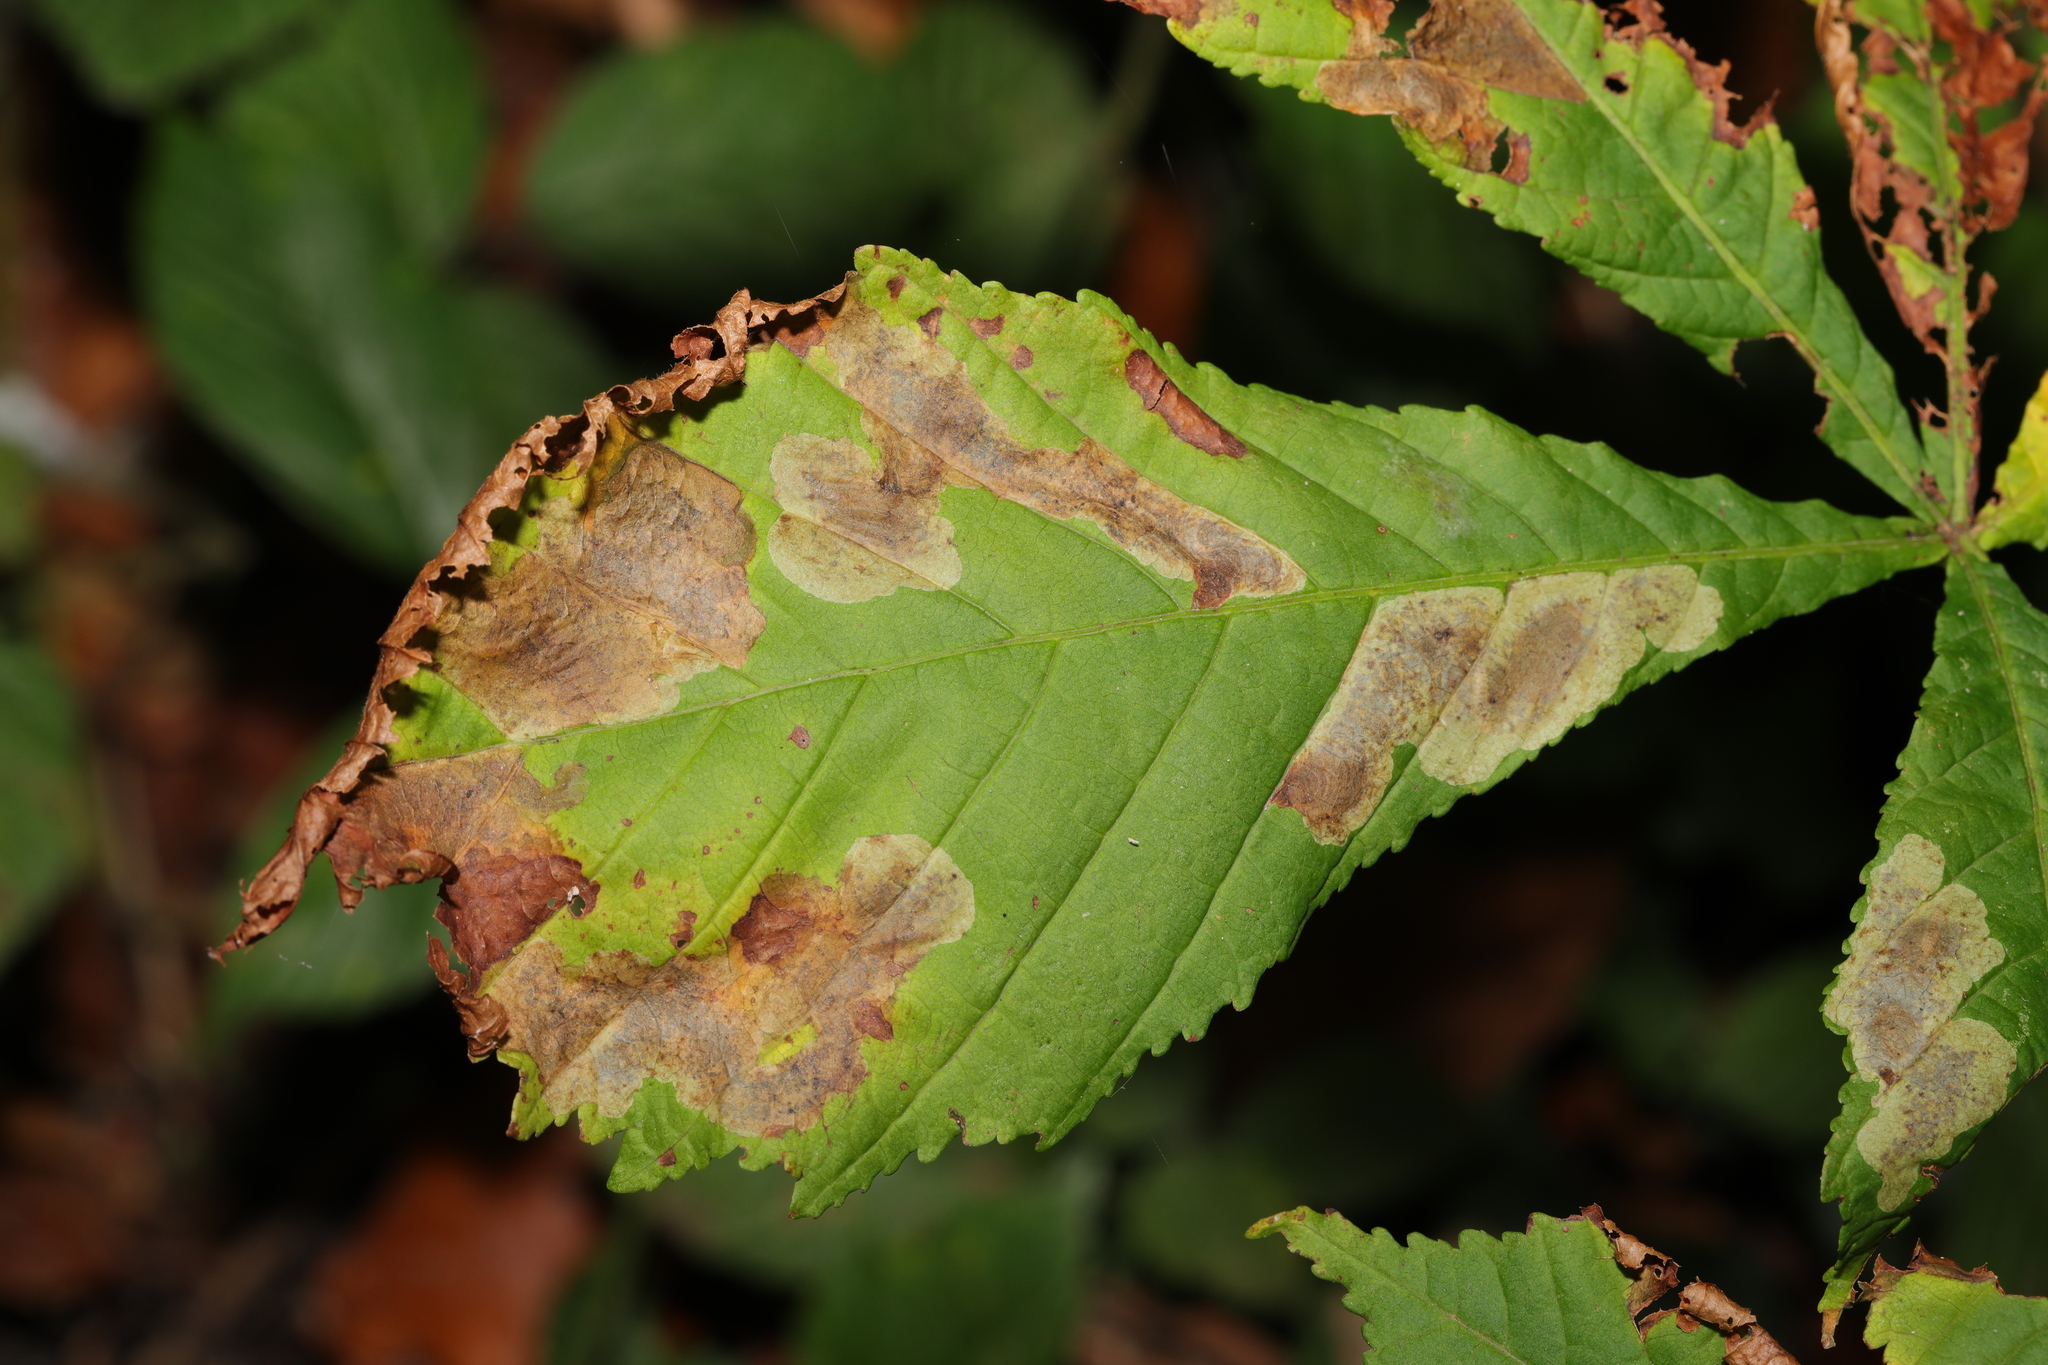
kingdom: Animalia
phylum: Arthropoda
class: Insecta
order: Lepidoptera
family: Gracillariidae
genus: Cameraria
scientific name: Cameraria ohridella
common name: Horse-chestnut leaf-miner
